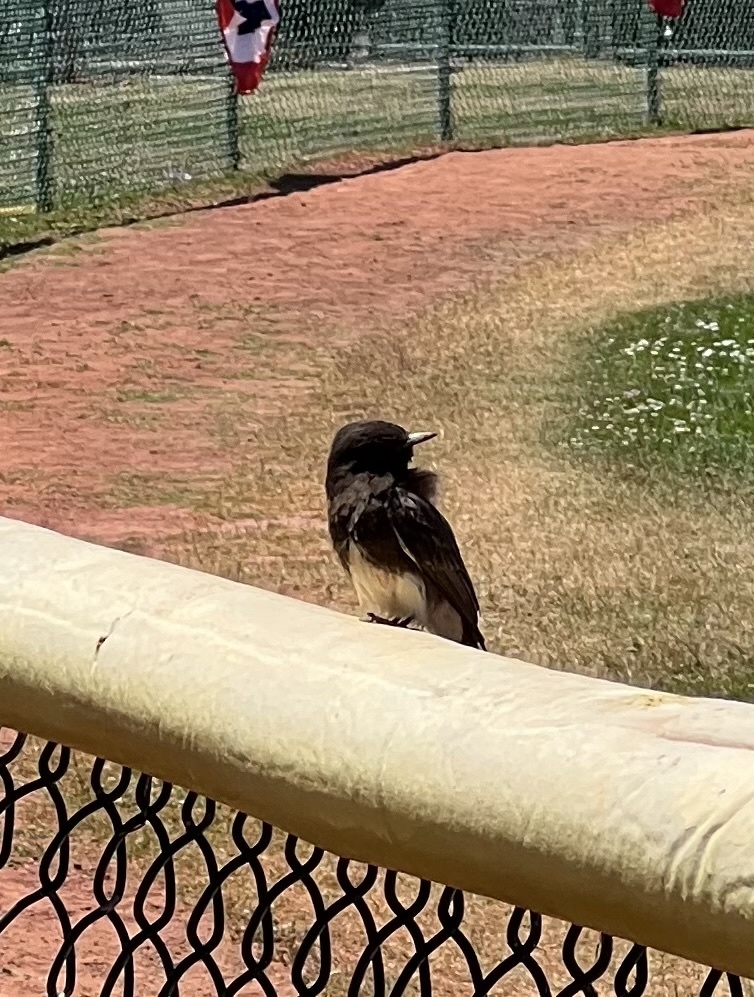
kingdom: Animalia
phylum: Chordata
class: Aves
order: Passeriformes
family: Tyrannidae
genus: Sayornis
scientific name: Sayornis nigricans
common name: Black phoebe
